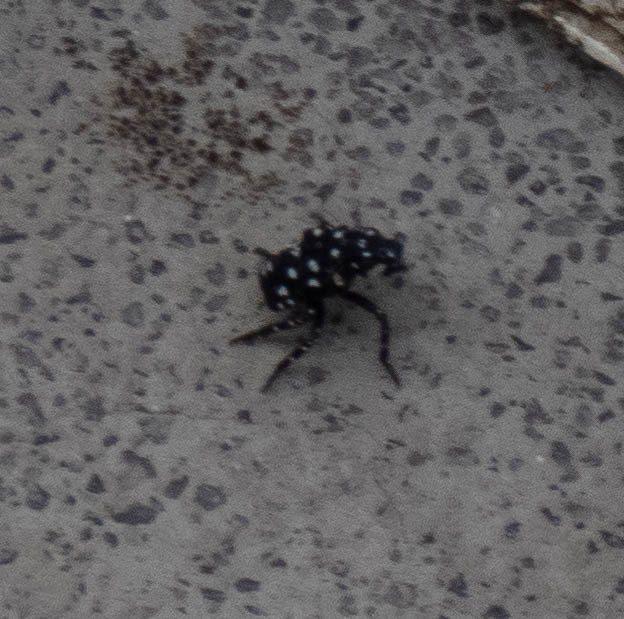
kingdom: Animalia
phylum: Arthropoda
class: Insecta
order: Hemiptera
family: Fulgoridae
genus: Lycorma
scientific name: Lycorma delicatula
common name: Spotted lanternfly
